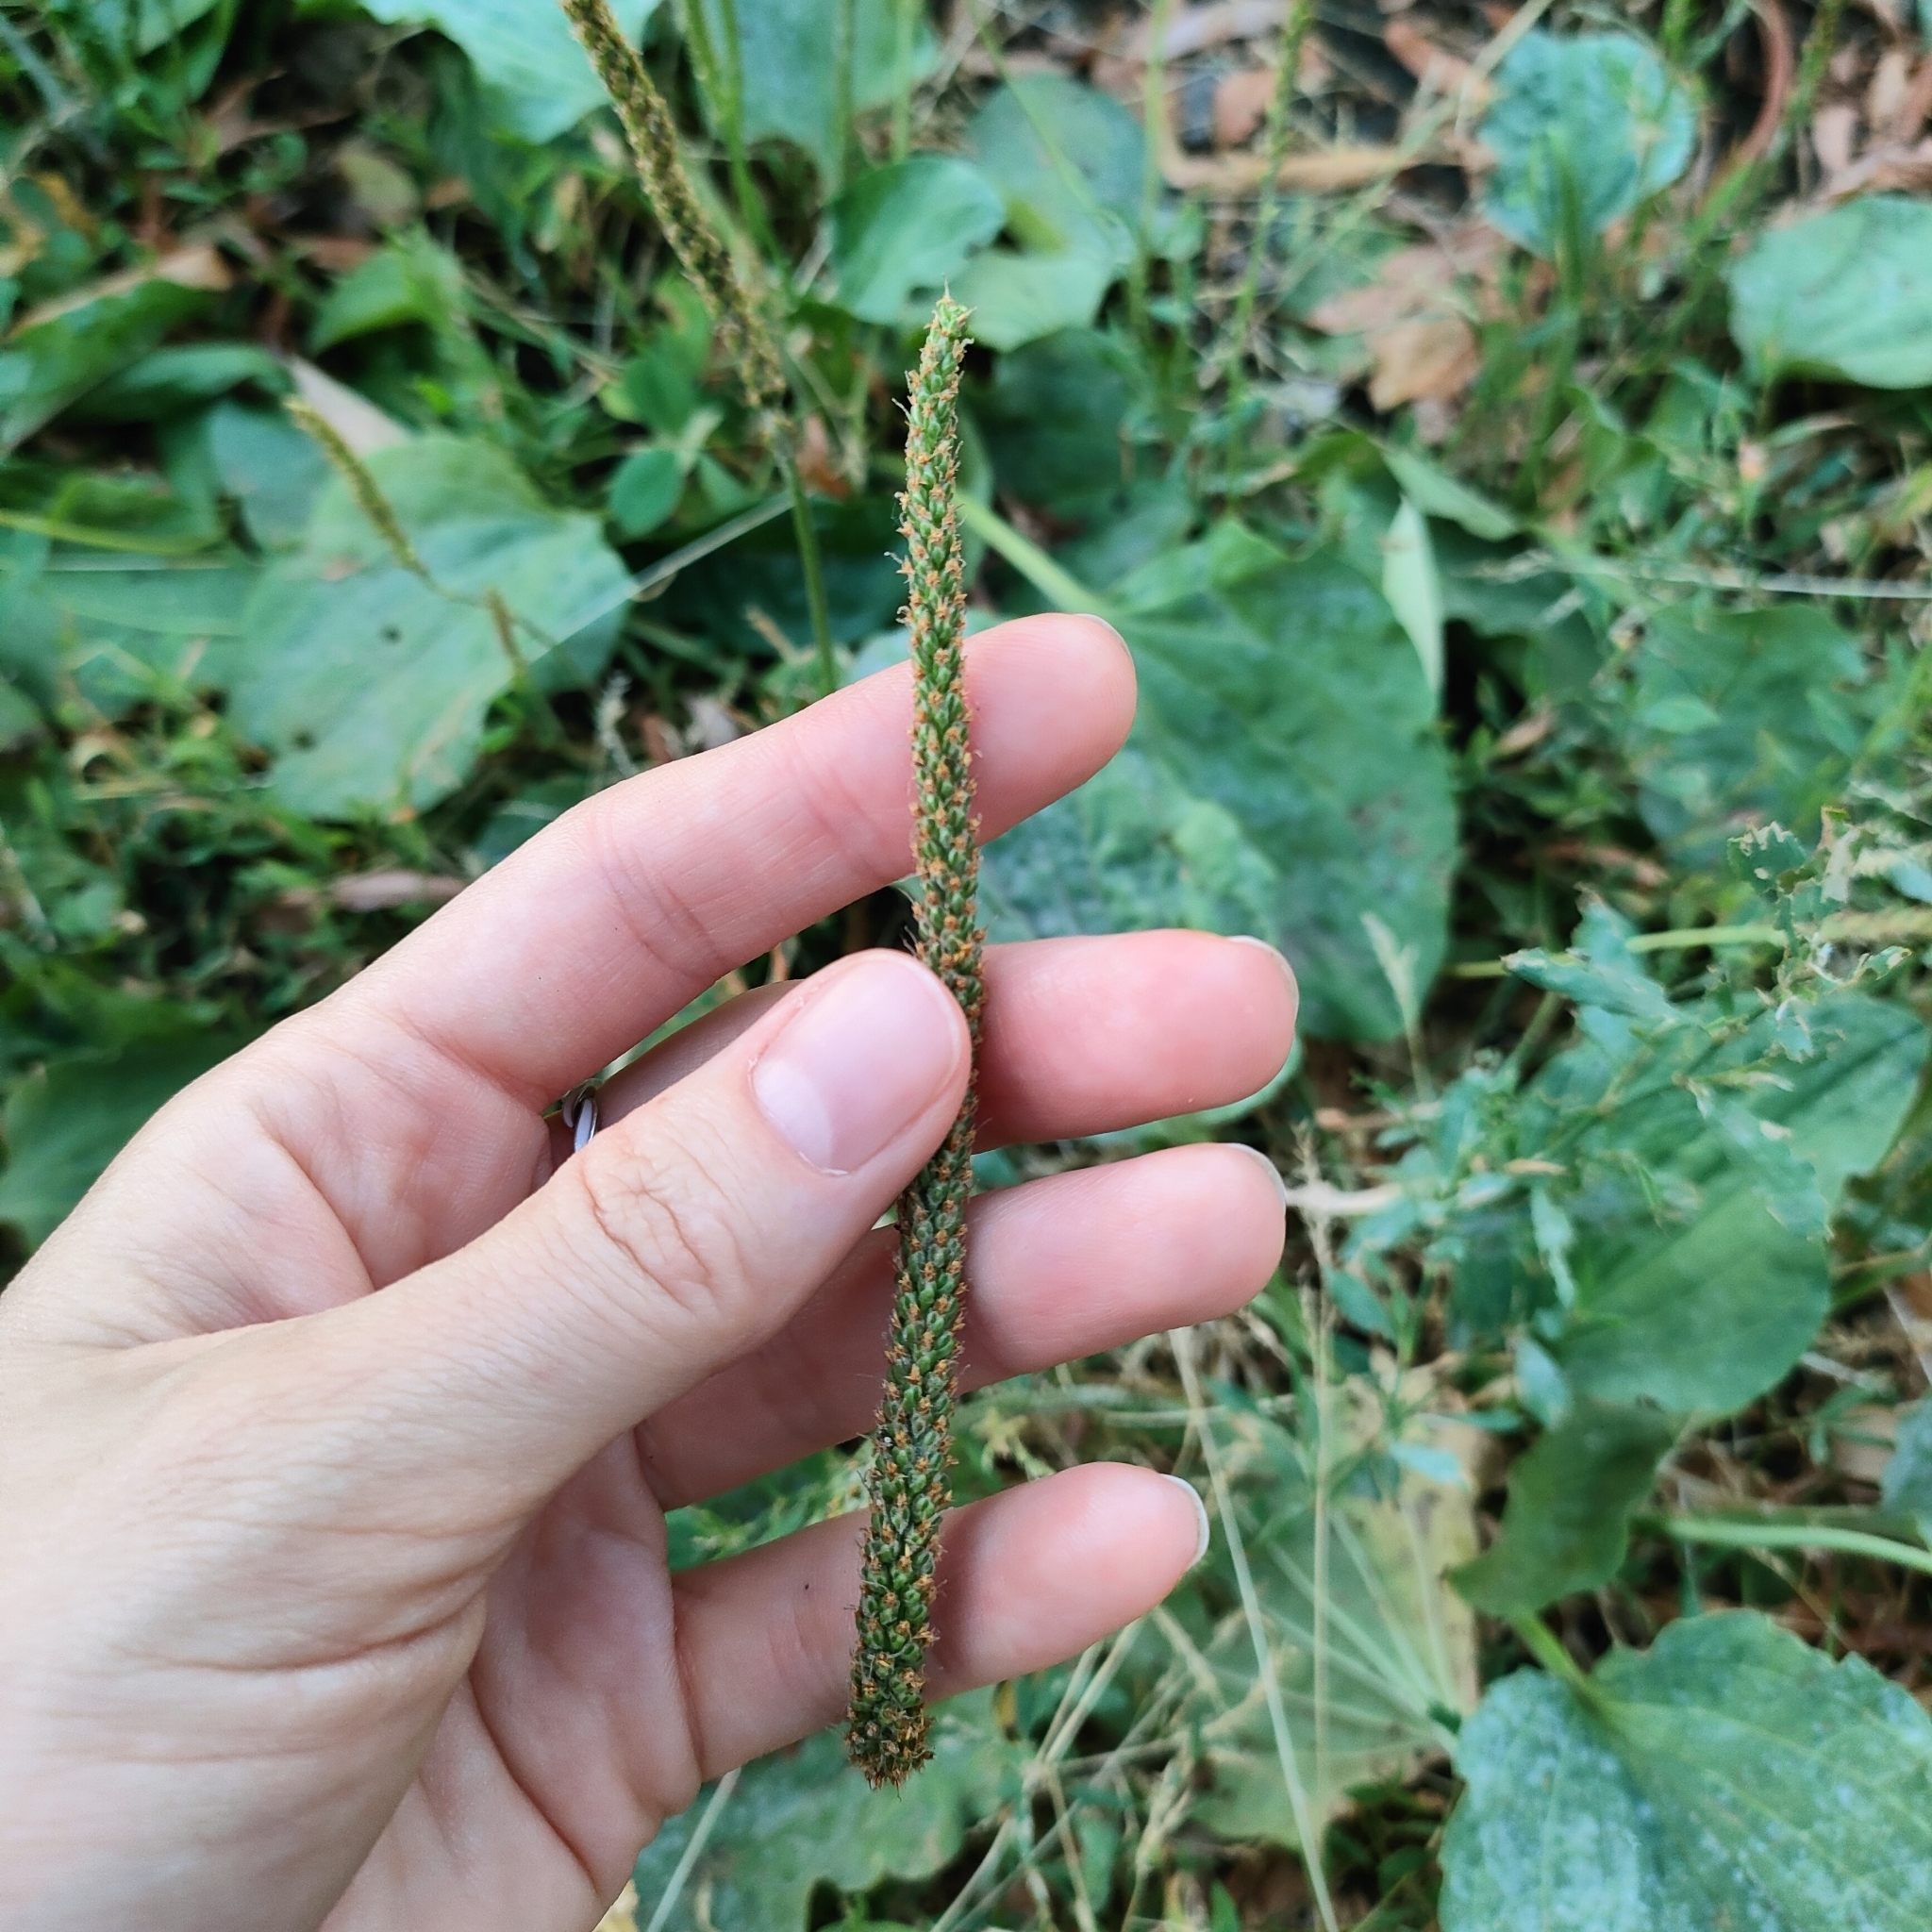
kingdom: Plantae
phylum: Tracheophyta
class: Magnoliopsida
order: Lamiales
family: Plantaginaceae
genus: Plantago
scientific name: Plantago major
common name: Common plantain
